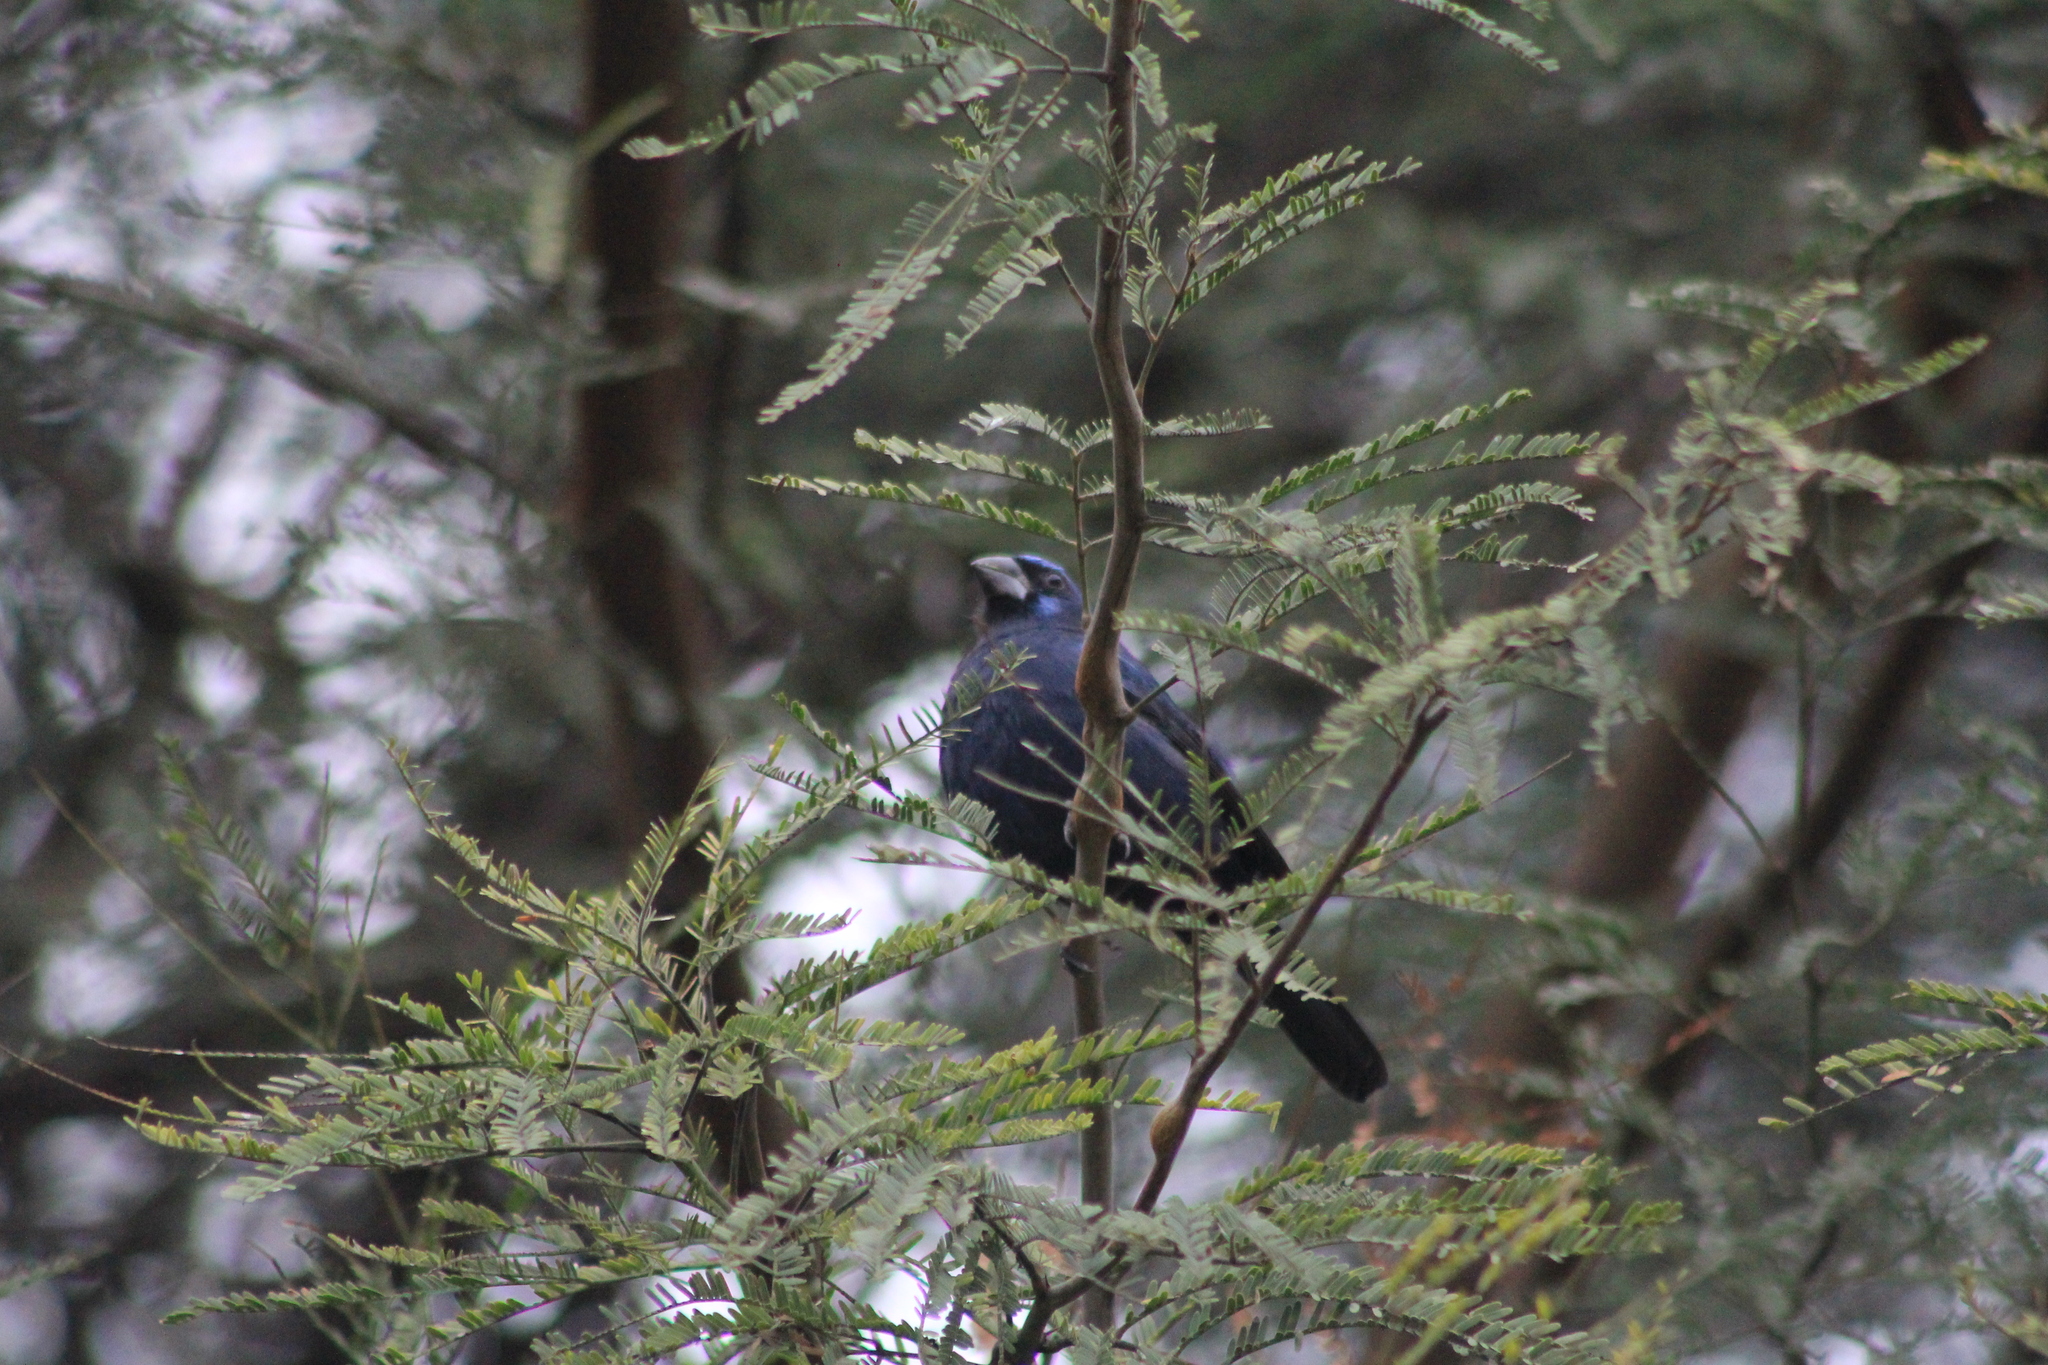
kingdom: Animalia
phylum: Chordata
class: Aves
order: Passeriformes
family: Cardinalidae
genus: Cyanoloxia
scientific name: Cyanoloxia brissonii
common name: Ultramarine grosbeak
